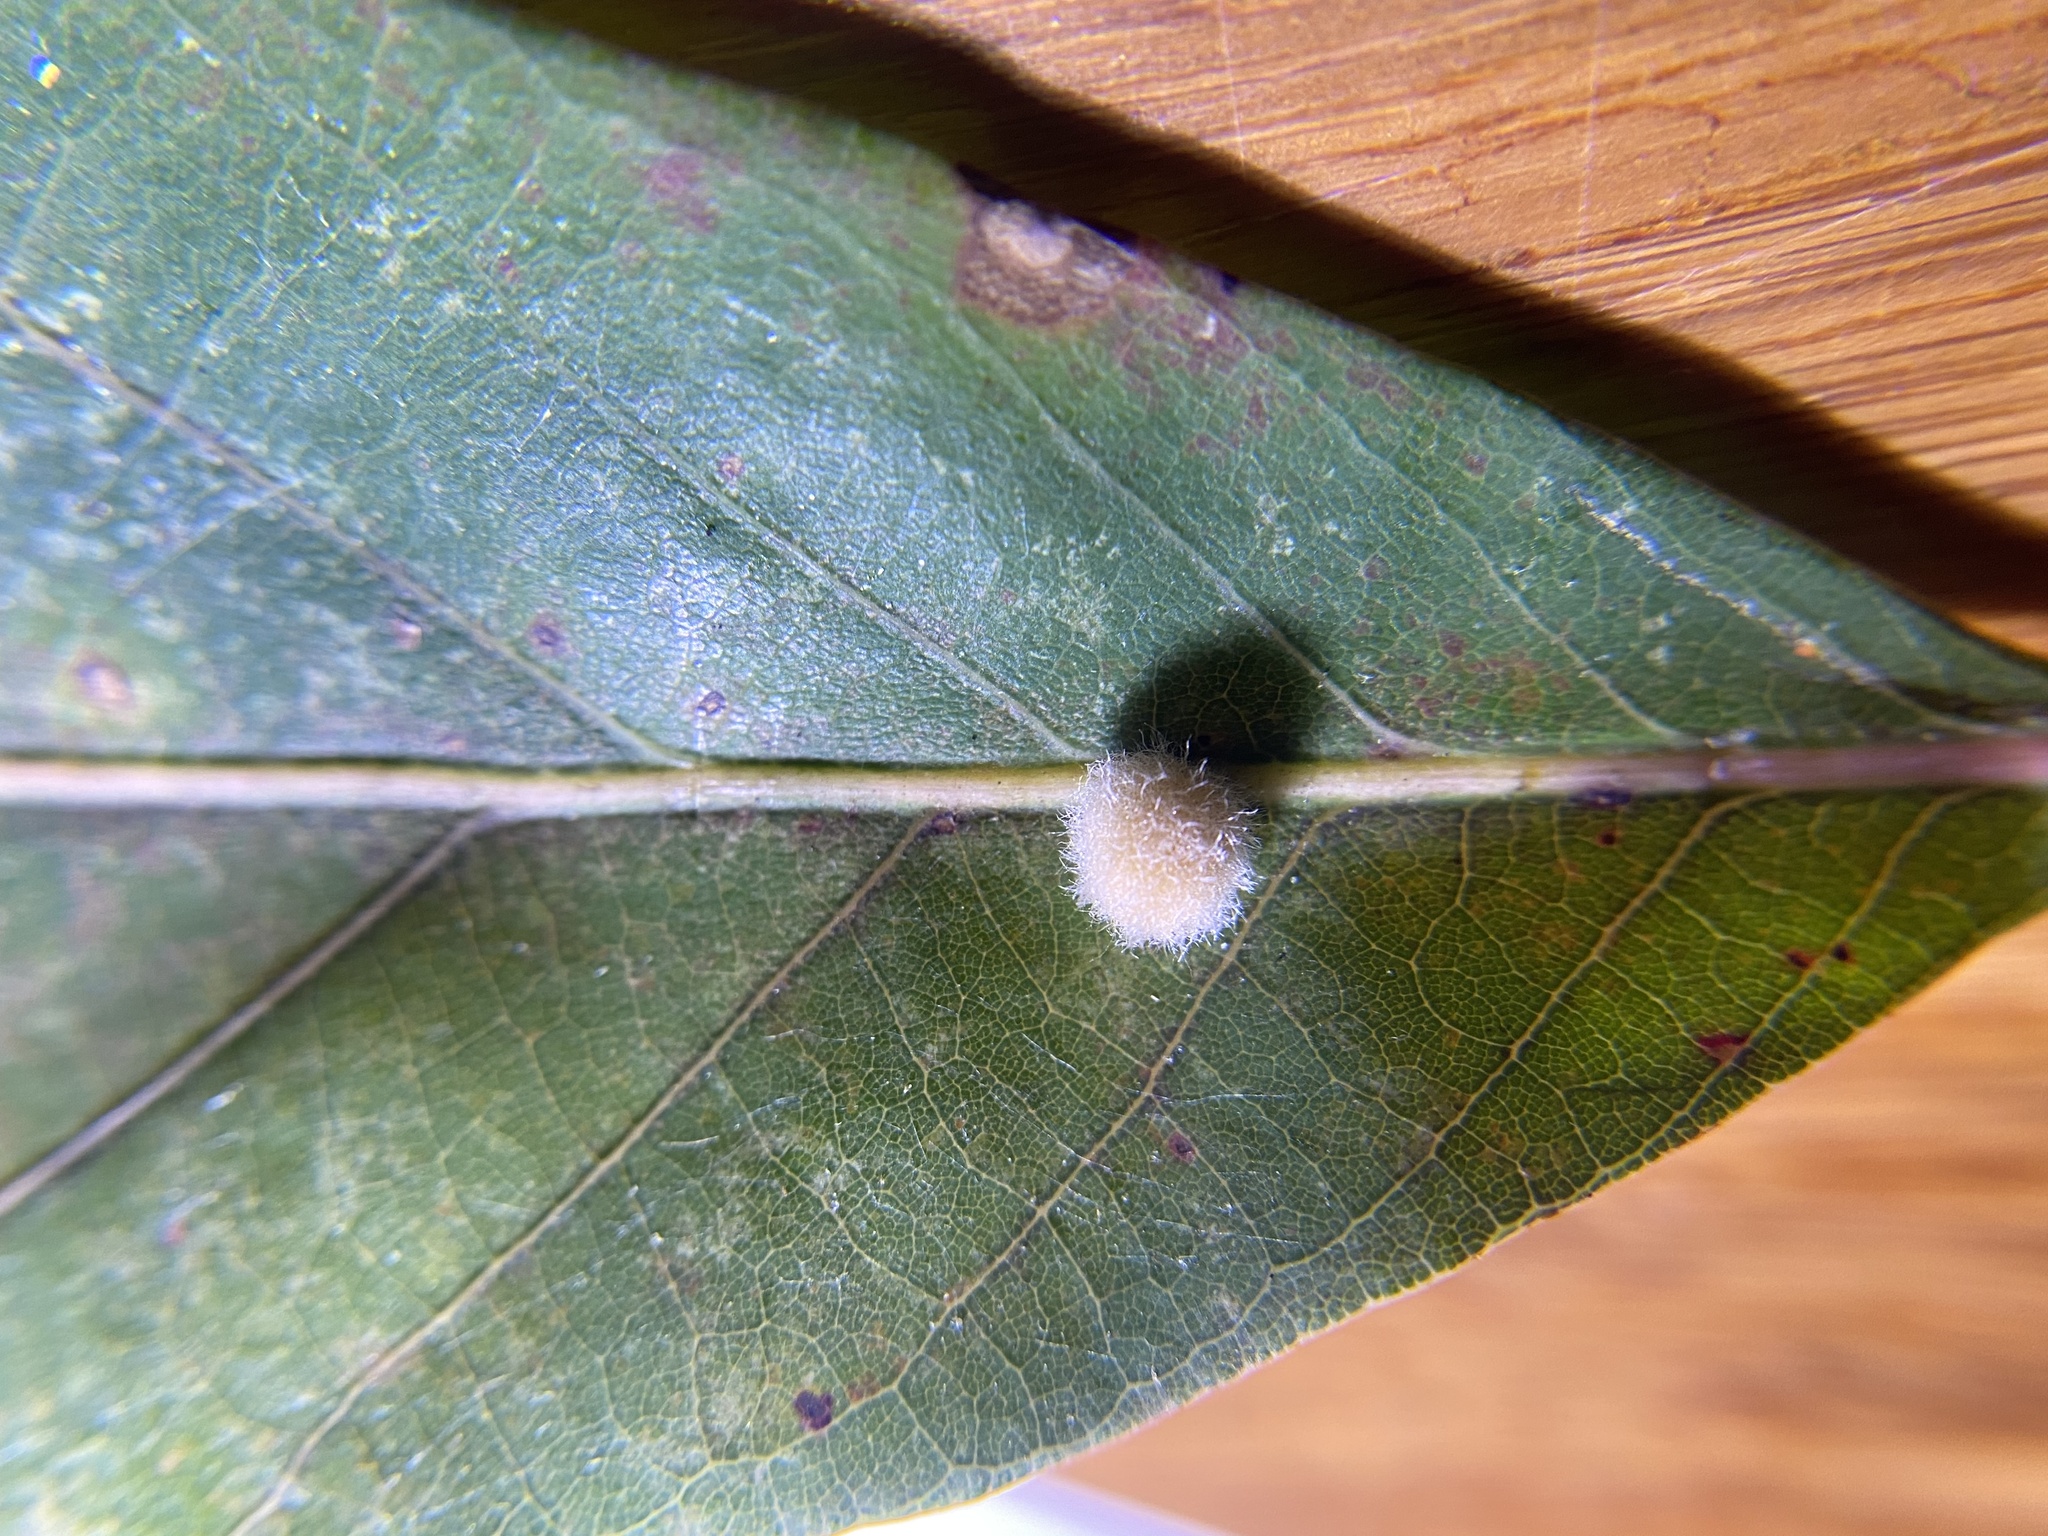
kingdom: Animalia
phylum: Arthropoda
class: Insecta
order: Hymenoptera
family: Cynipidae
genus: Andricus
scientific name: Andricus quercusflocci
